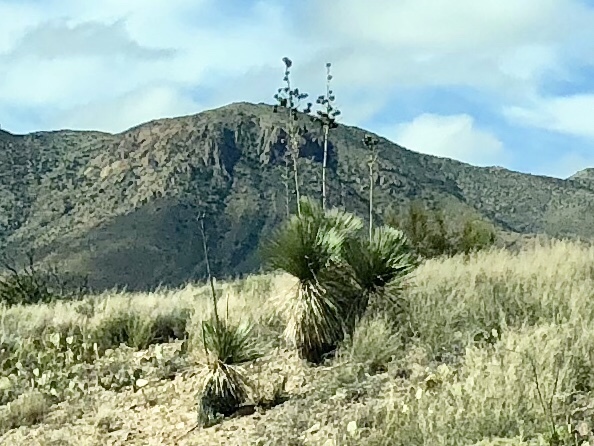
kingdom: Plantae
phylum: Tracheophyta
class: Liliopsida
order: Asparagales
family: Asparagaceae
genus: Yucca
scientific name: Yucca elata
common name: Palmella
